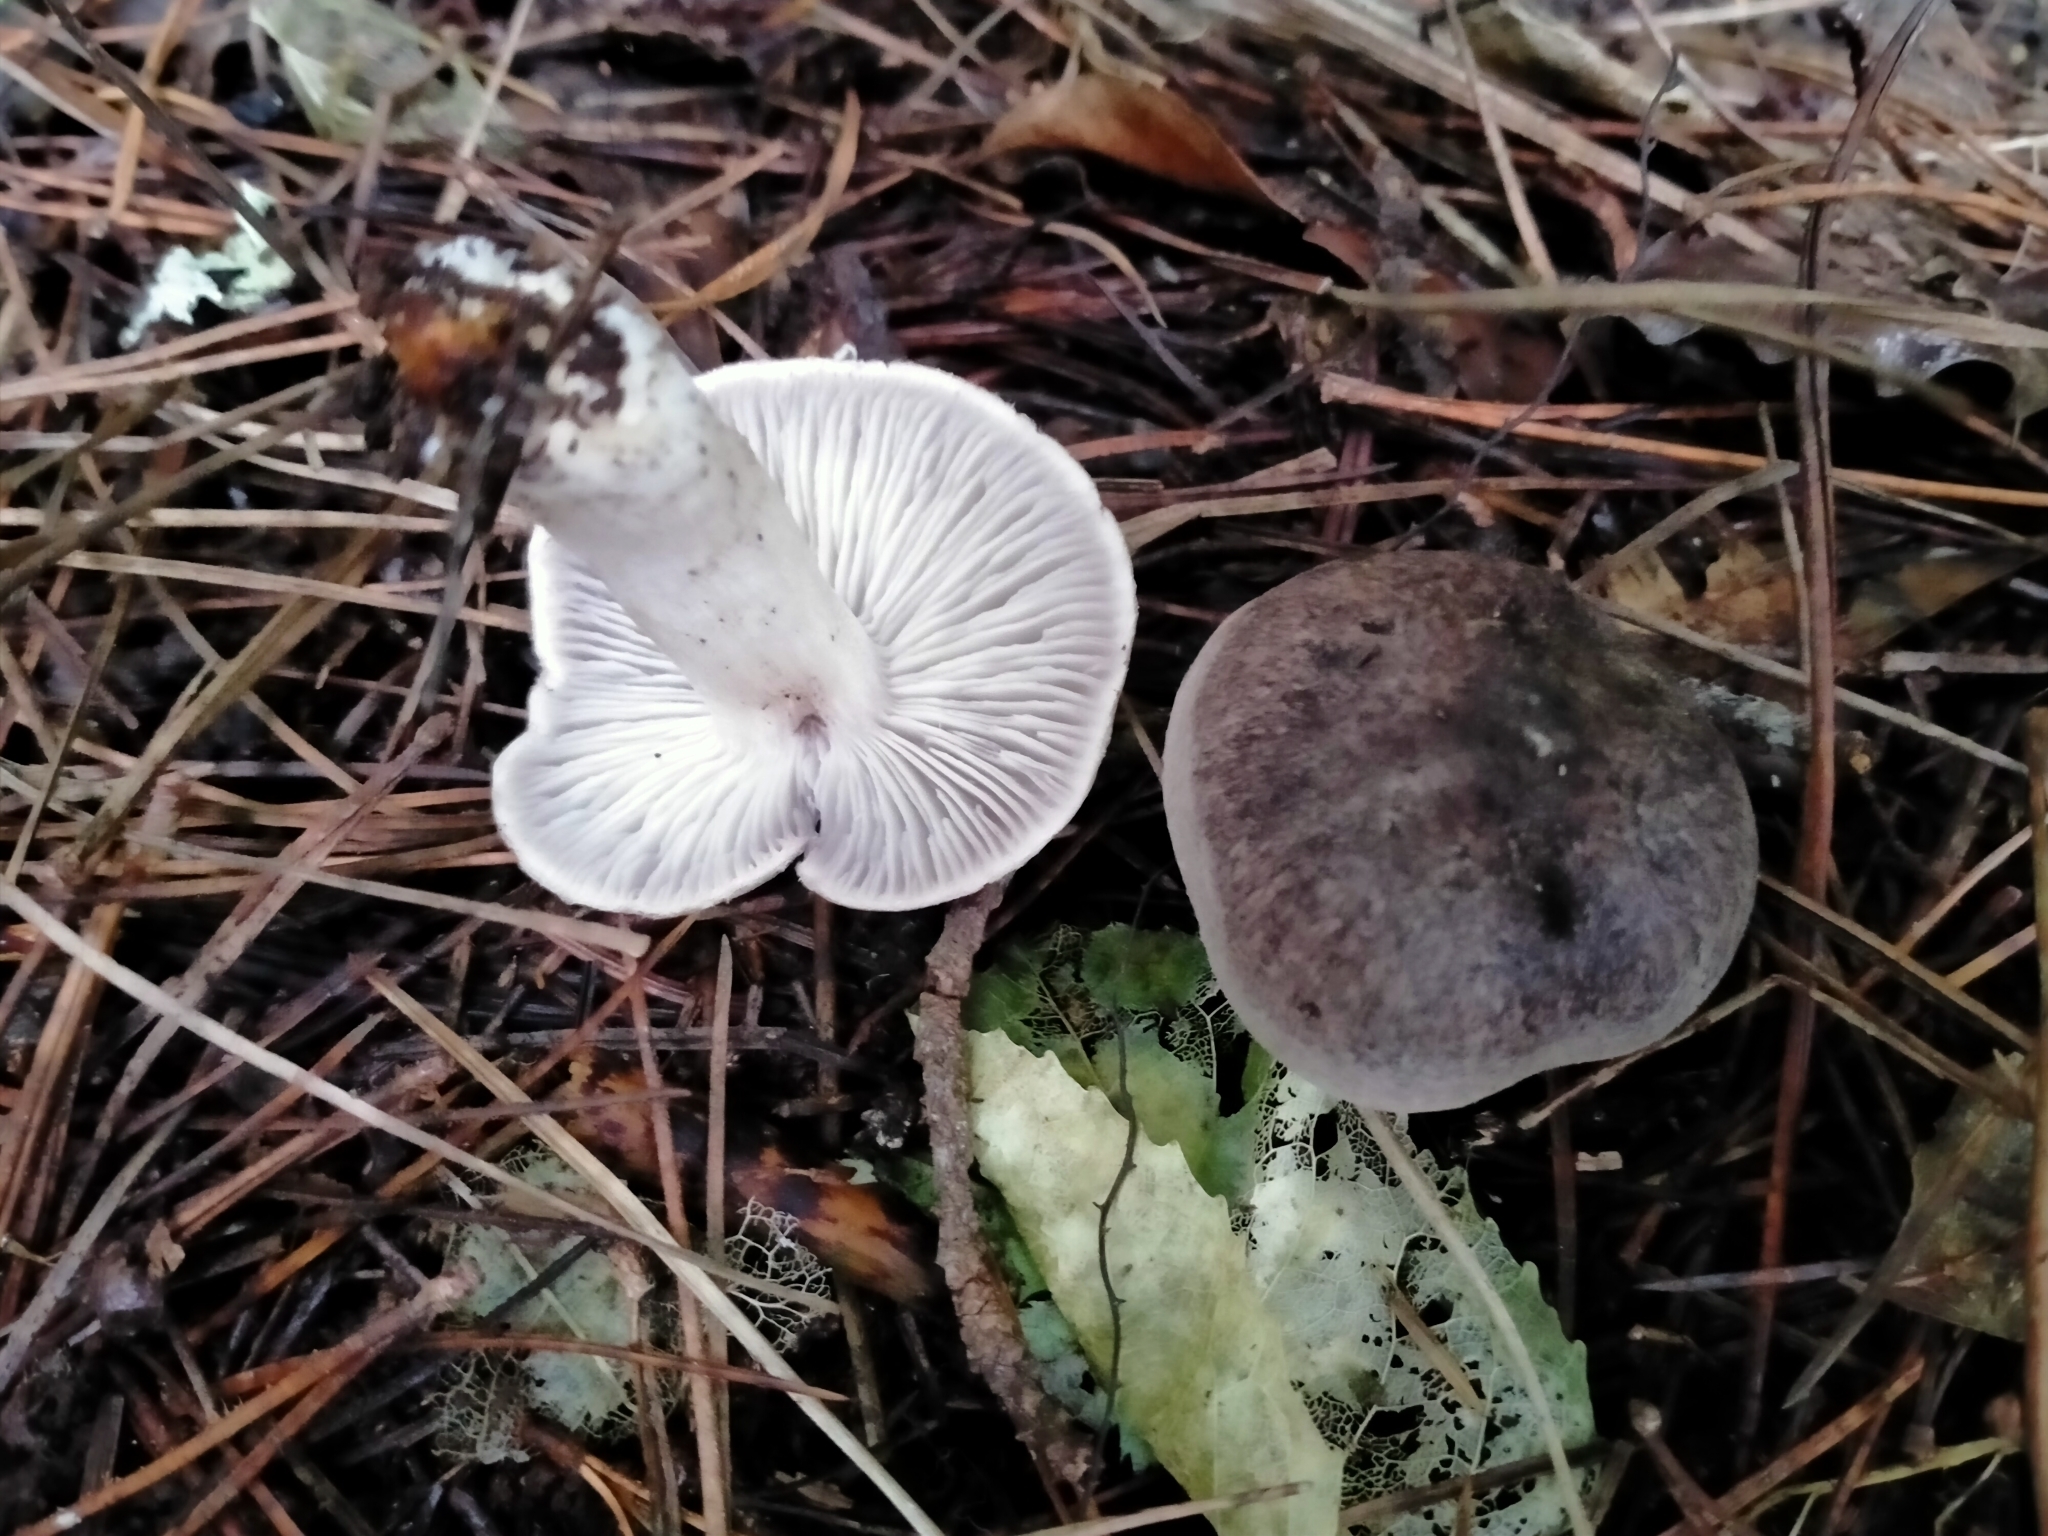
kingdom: Fungi
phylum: Basidiomycota
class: Agaricomycetes
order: Agaricales
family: Tricholomataceae
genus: Tricholoma
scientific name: Tricholoma terreum
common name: Grey knight
